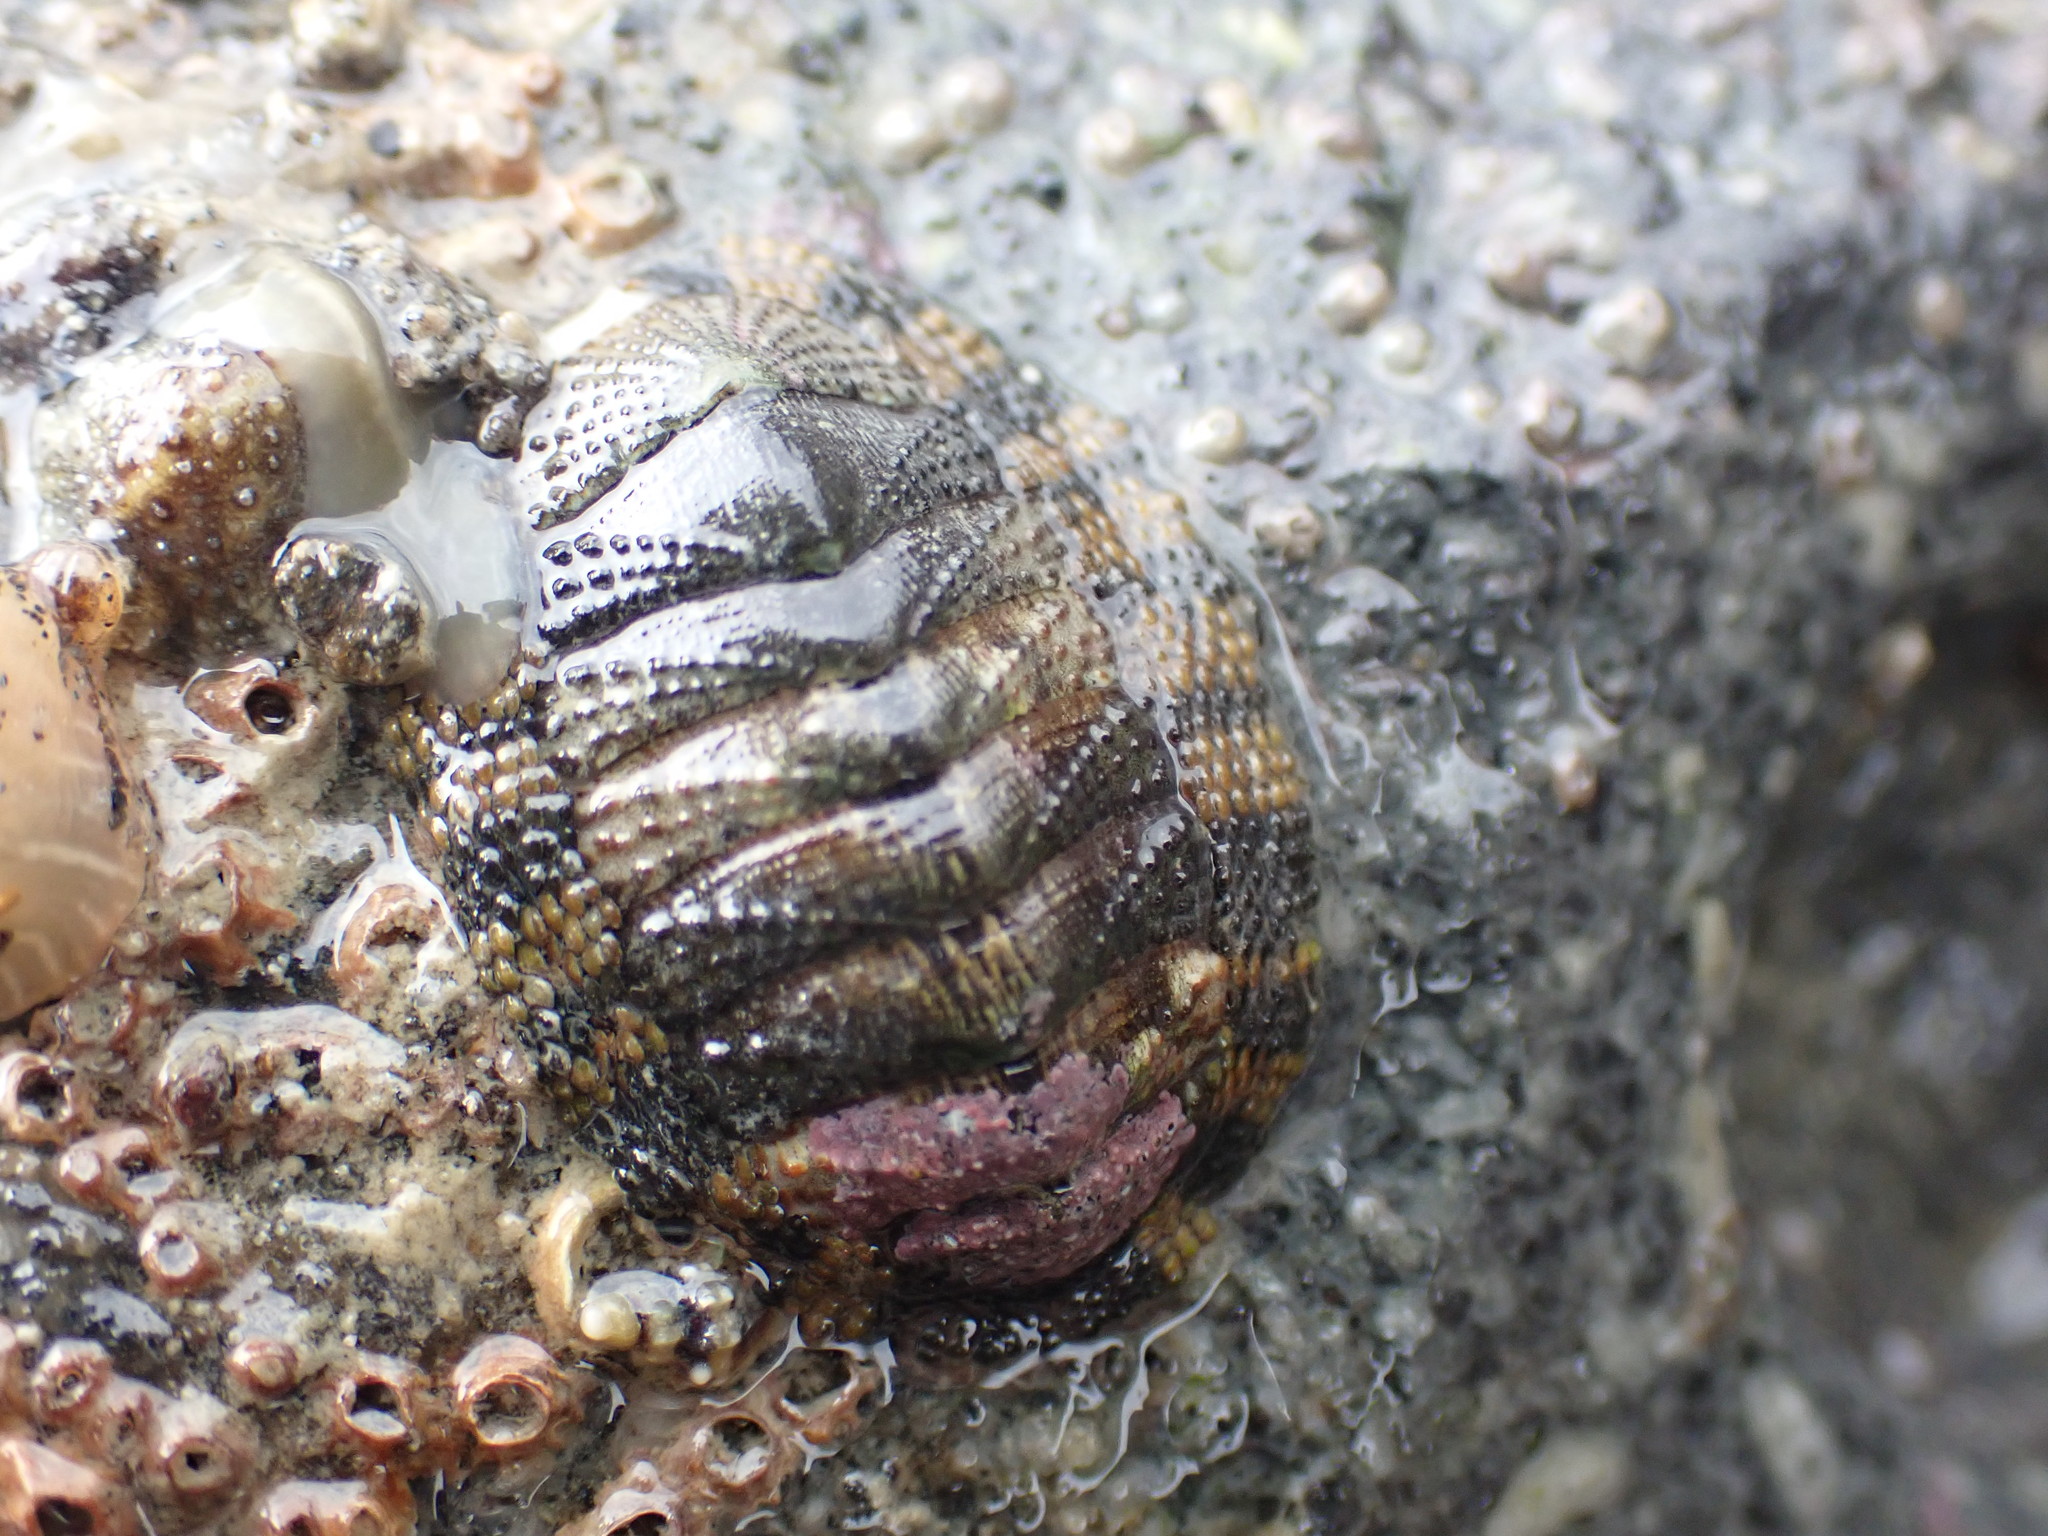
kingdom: Animalia
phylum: Mollusca
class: Polyplacophora
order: Chitonida
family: Chitonidae
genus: Sypharochiton
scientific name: Sypharochiton pelliserpentis
